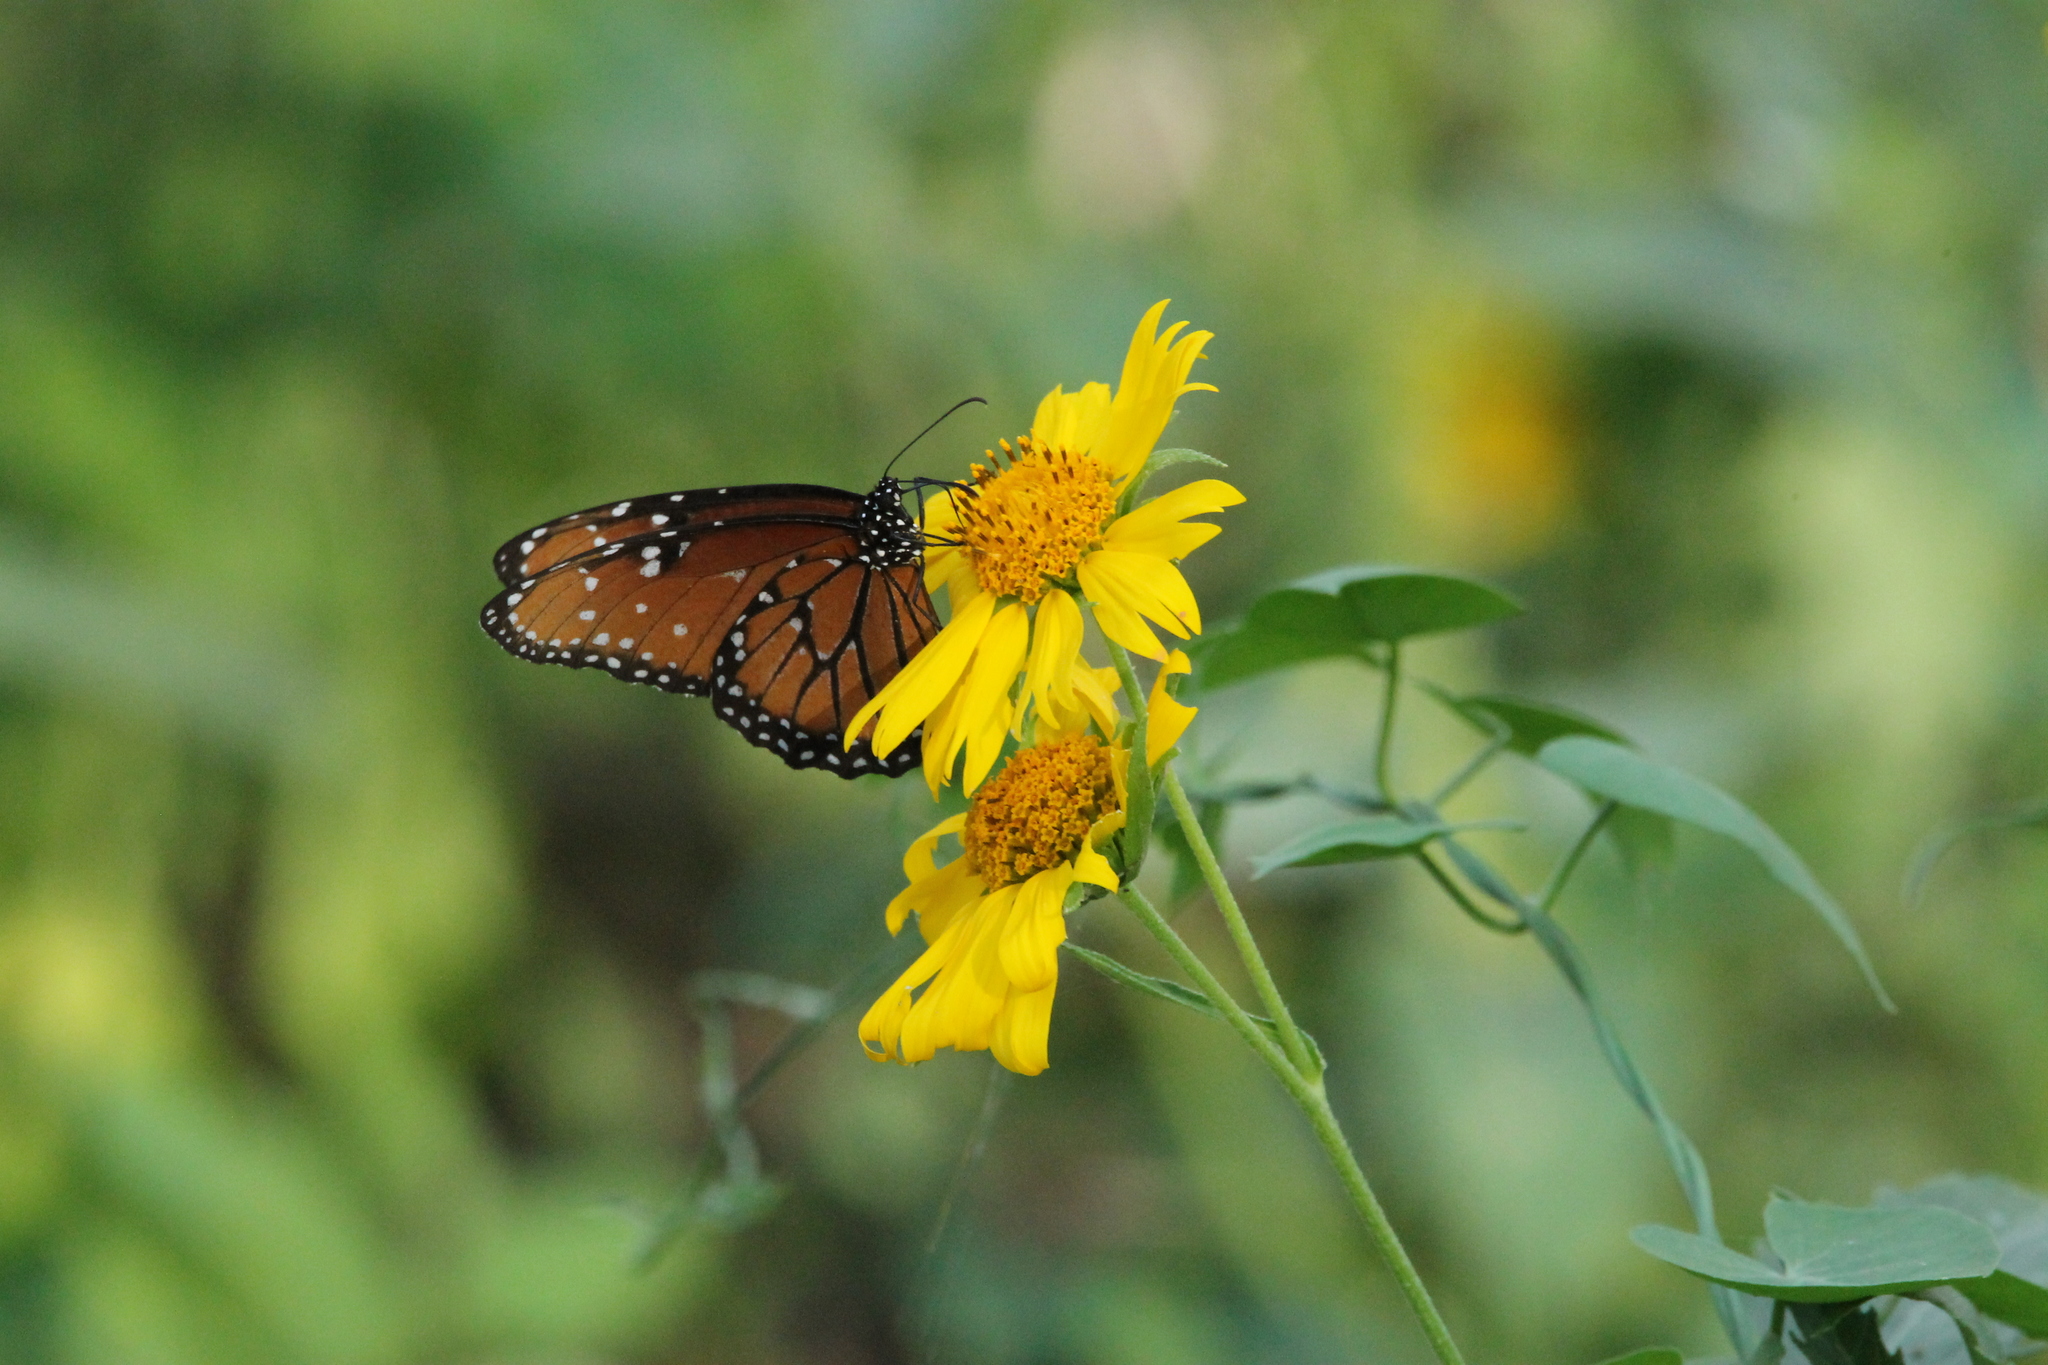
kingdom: Animalia
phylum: Arthropoda
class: Insecta
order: Lepidoptera
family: Nymphalidae
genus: Danaus
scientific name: Danaus gilippus
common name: Queen
